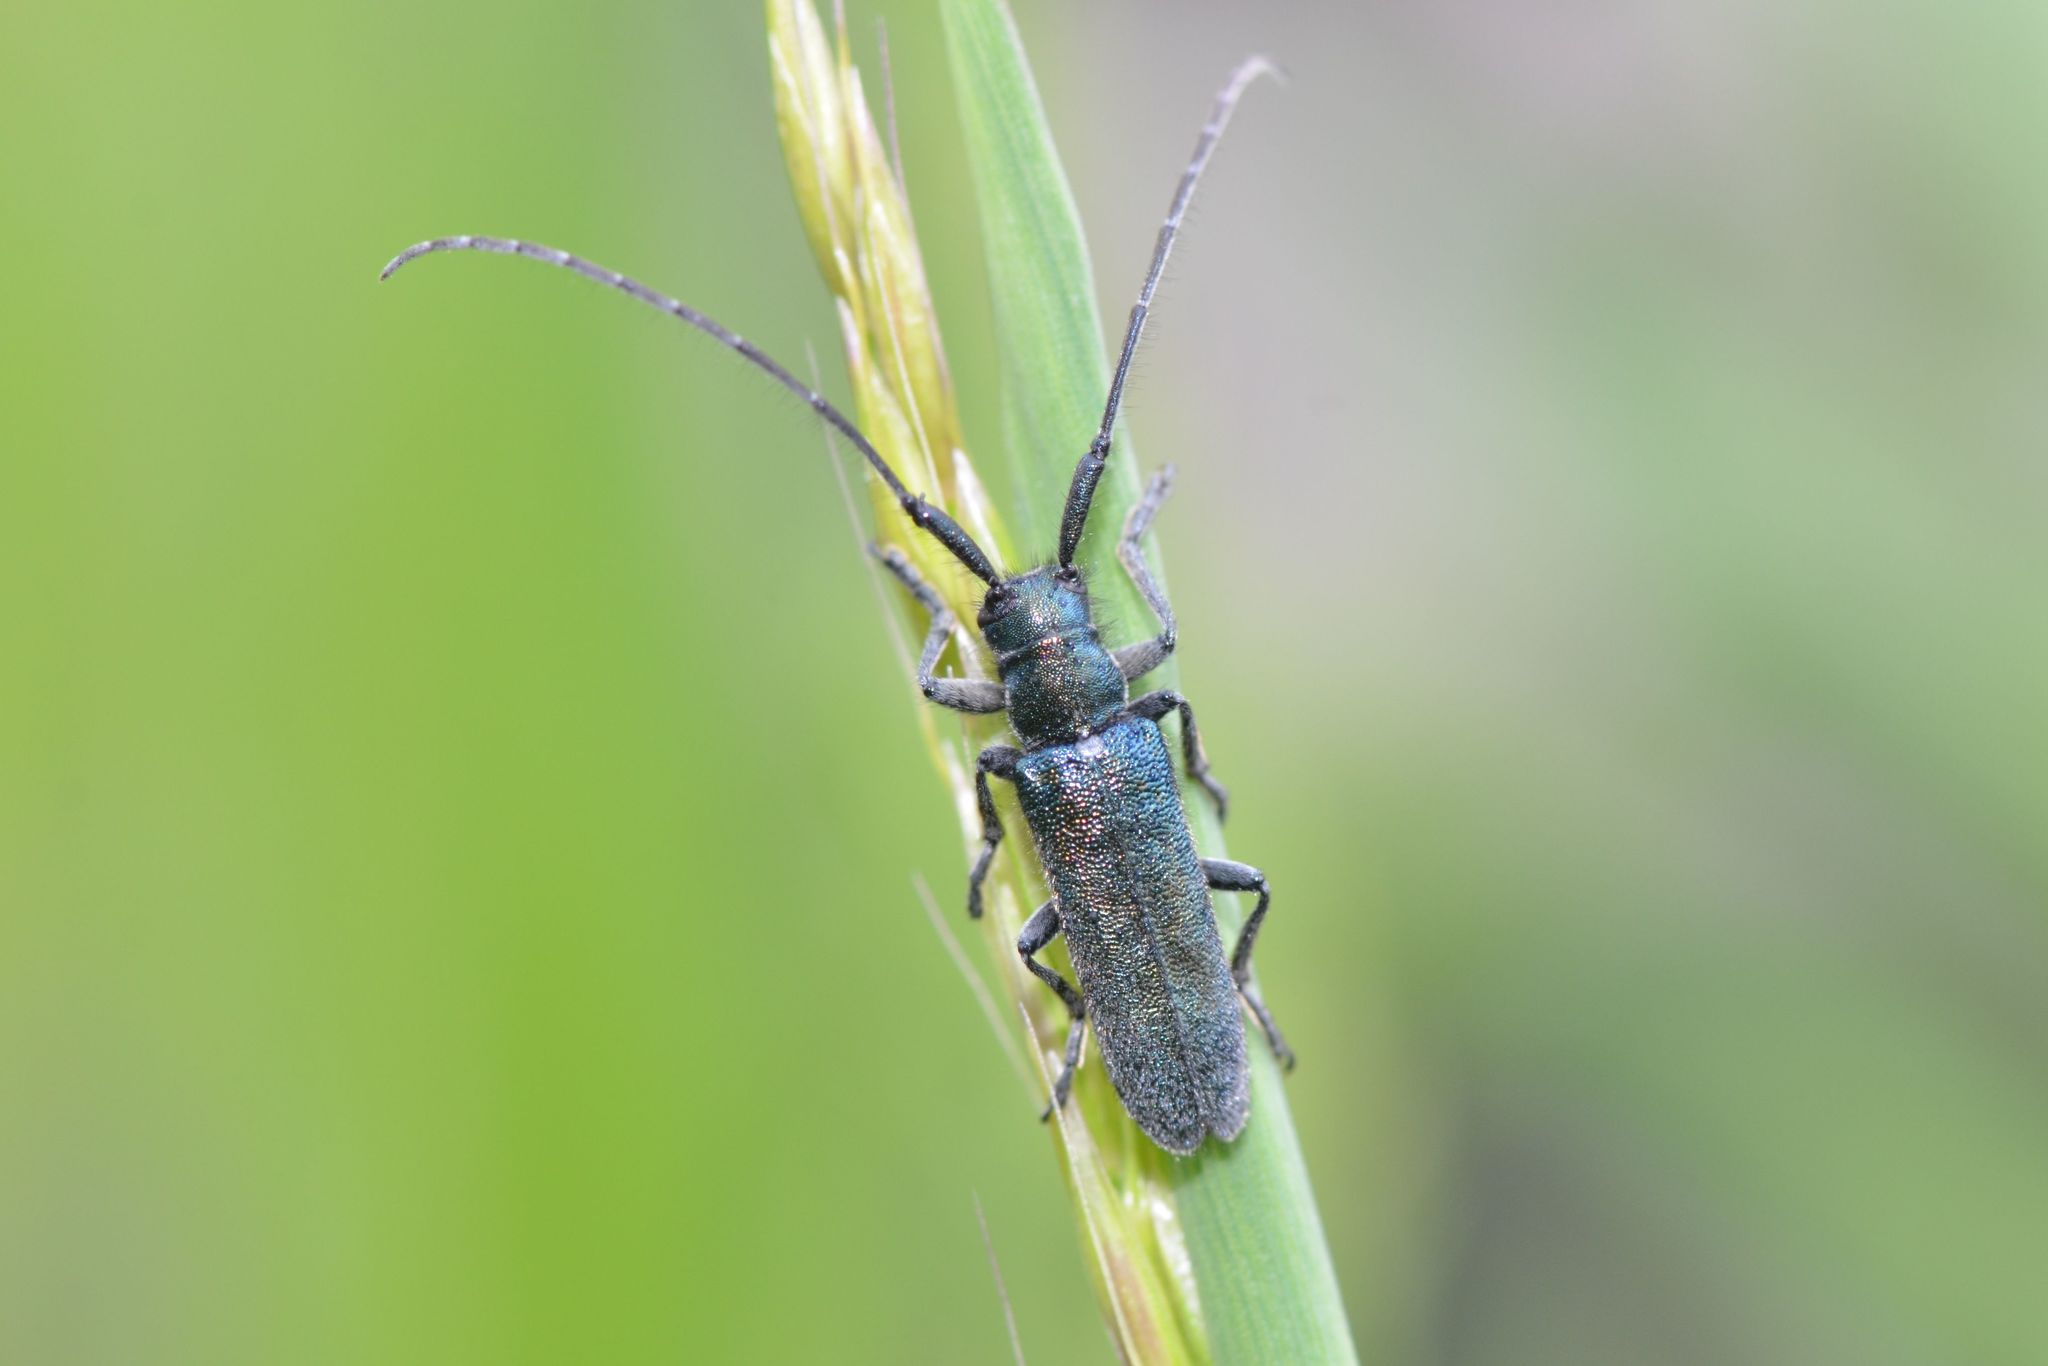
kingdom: Animalia
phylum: Arthropoda
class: Insecta
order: Coleoptera
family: Cerambycidae
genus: Agapanthia
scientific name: Agapanthia intermedia
